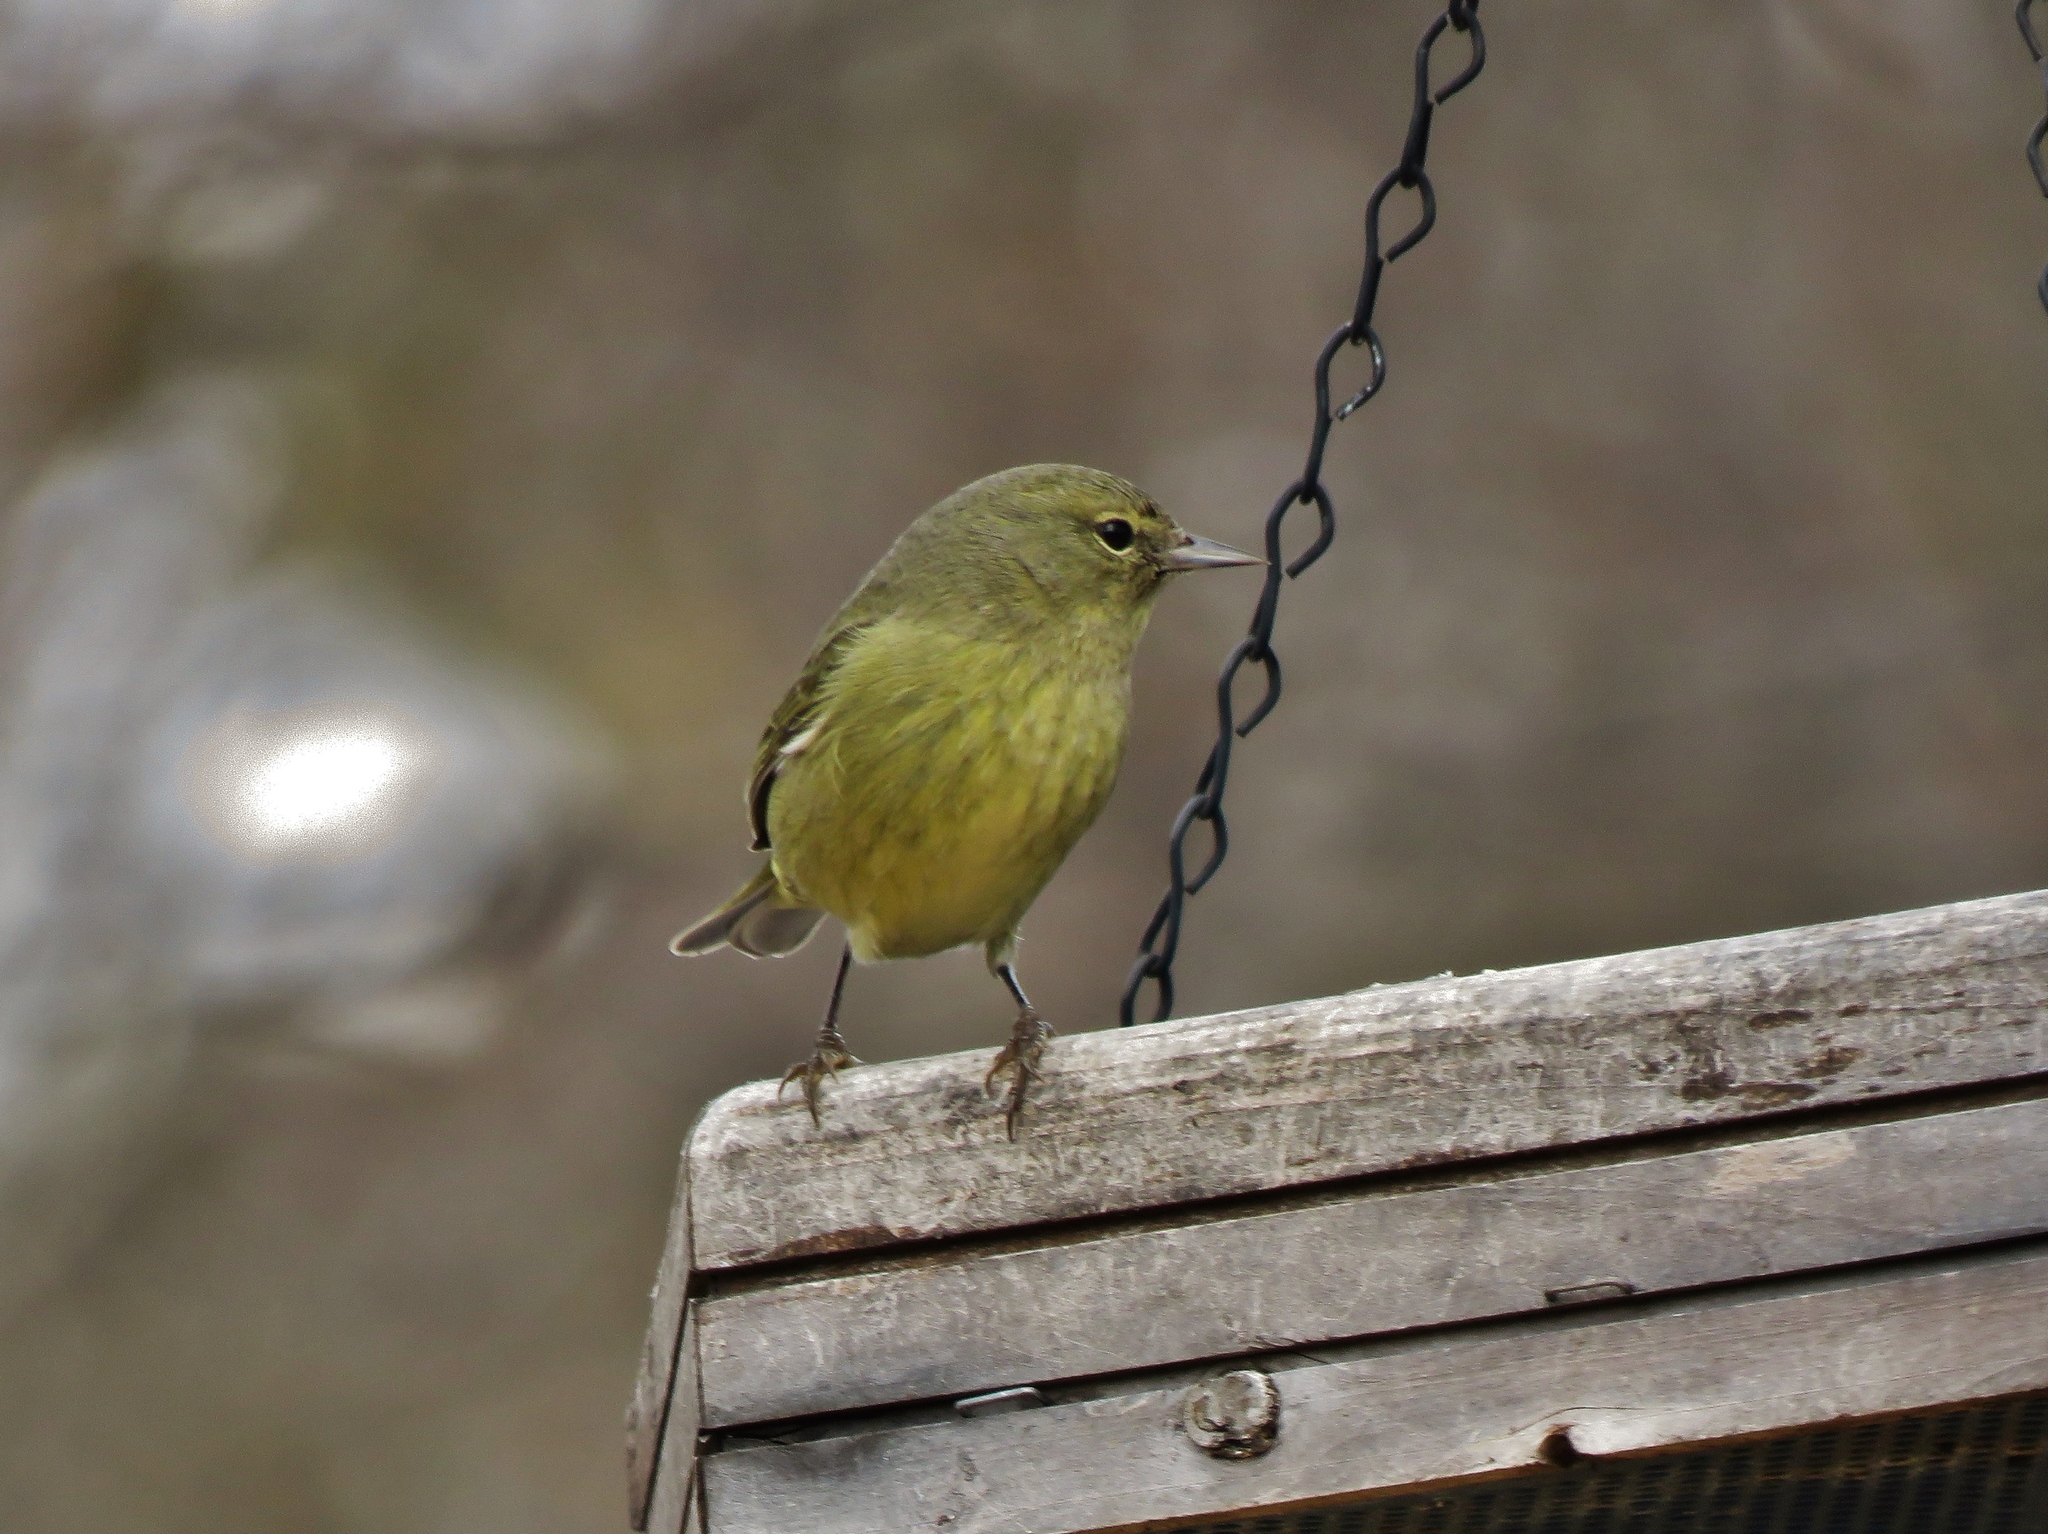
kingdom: Animalia
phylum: Chordata
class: Aves
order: Passeriformes
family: Parulidae
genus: Leiothlypis
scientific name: Leiothlypis celata
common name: Orange-crowned warbler
